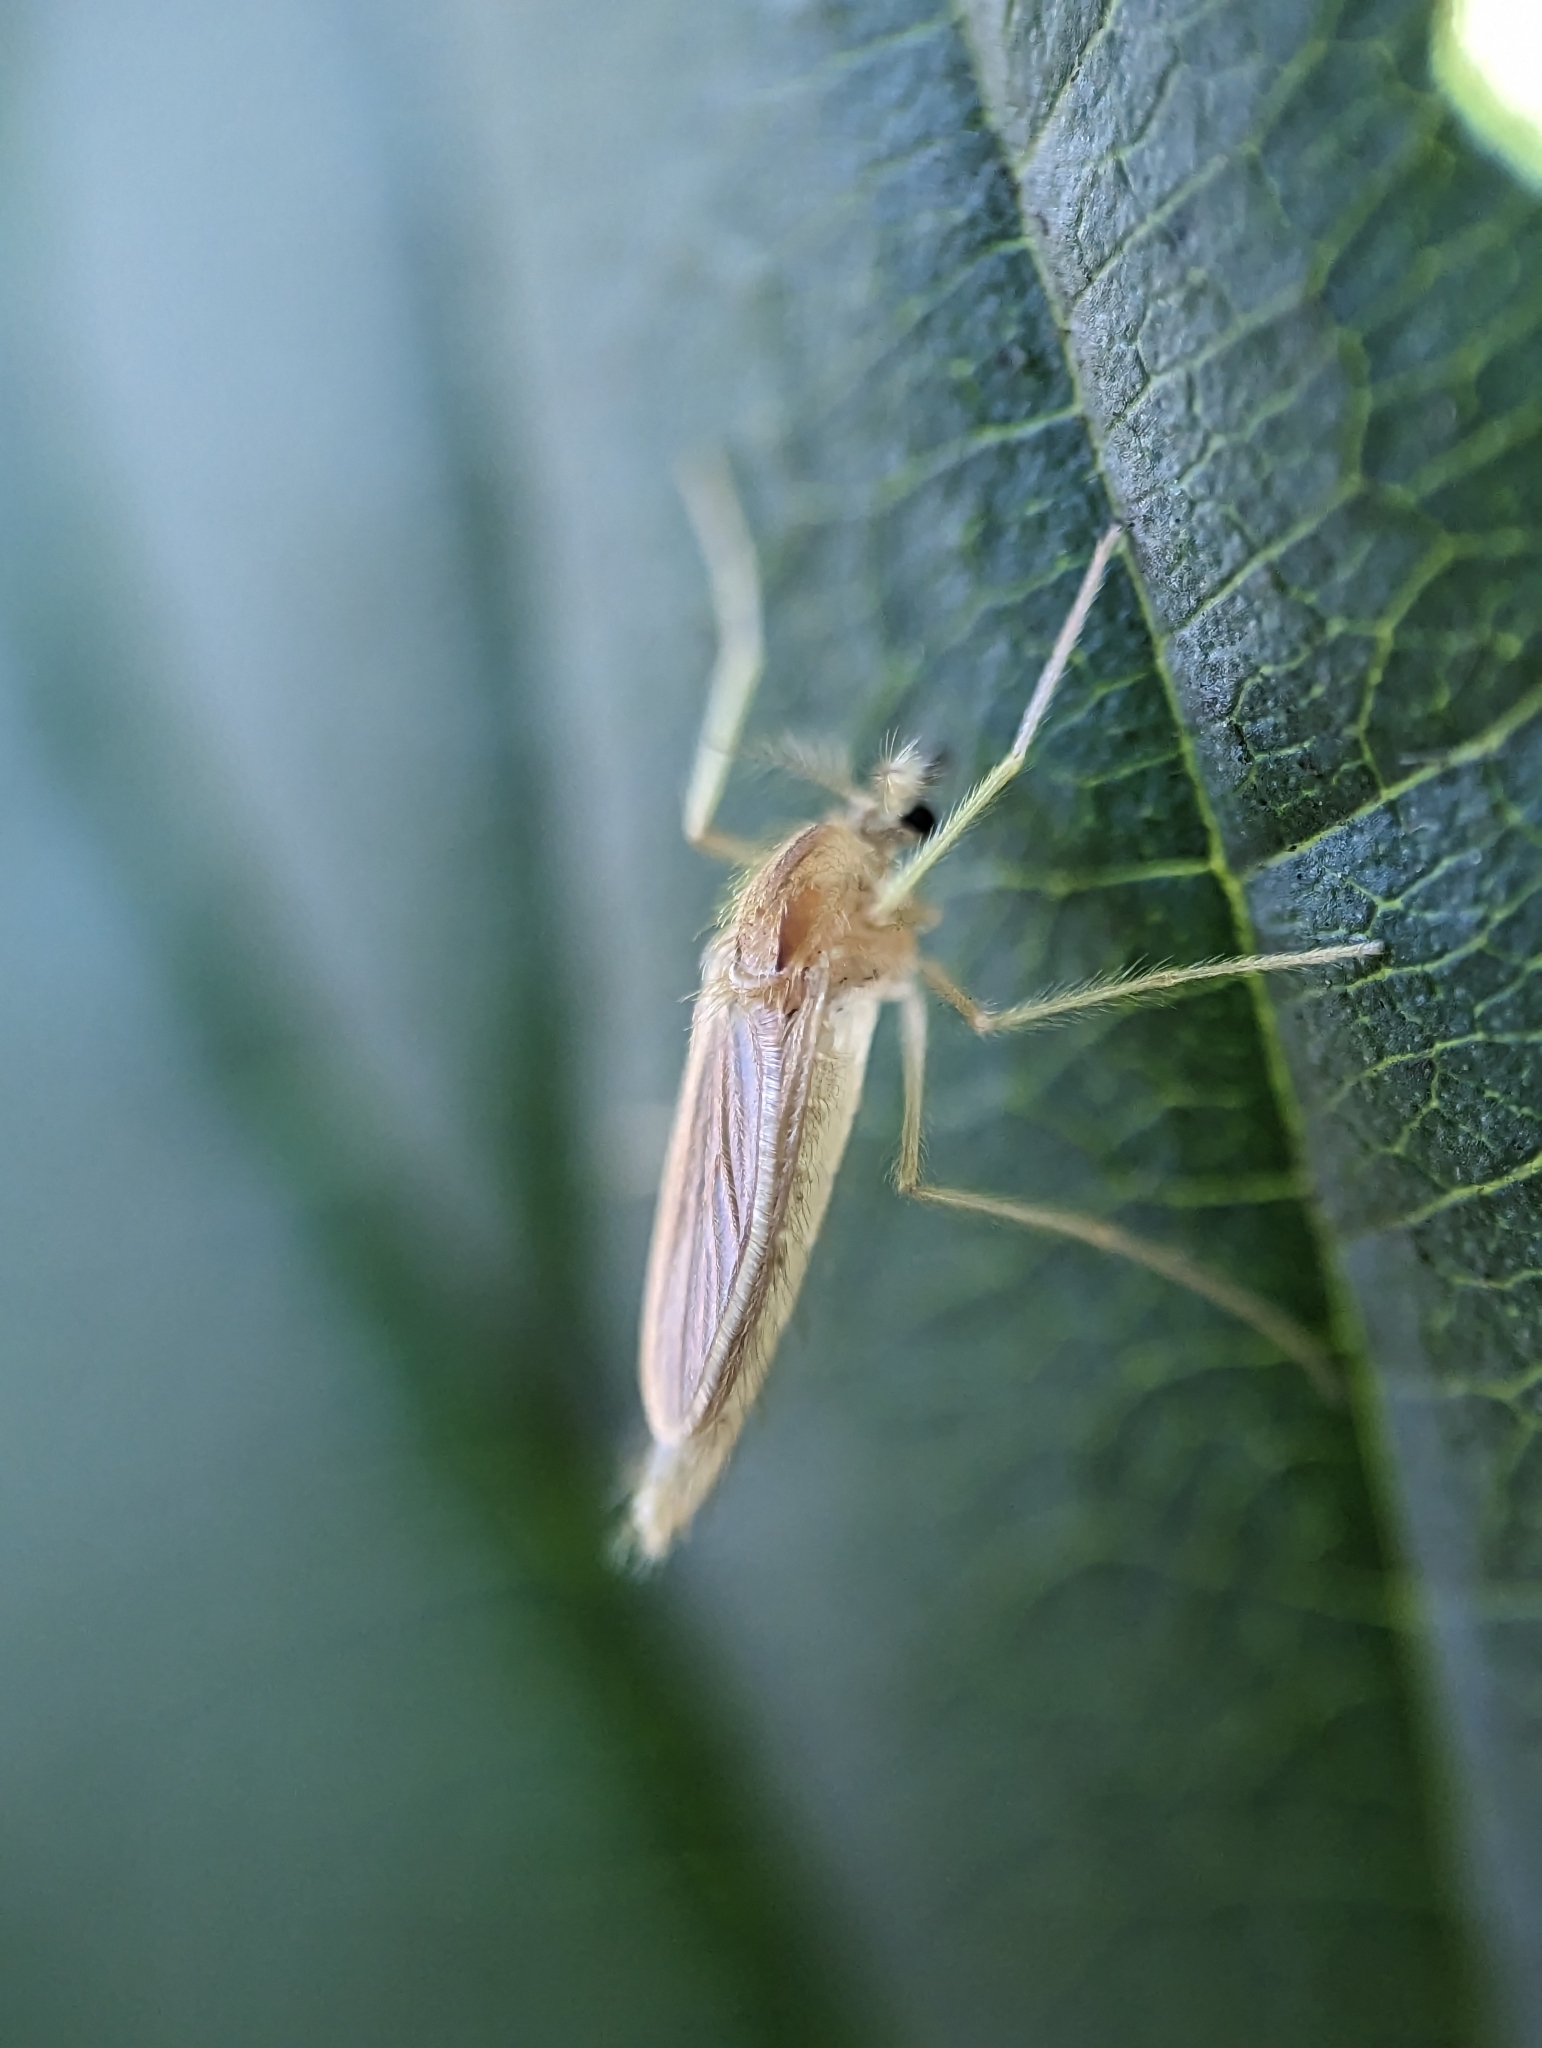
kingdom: Animalia
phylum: Arthropoda
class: Insecta
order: Diptera
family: Chaoboridae
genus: Chaoborus
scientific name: Chaoborus
